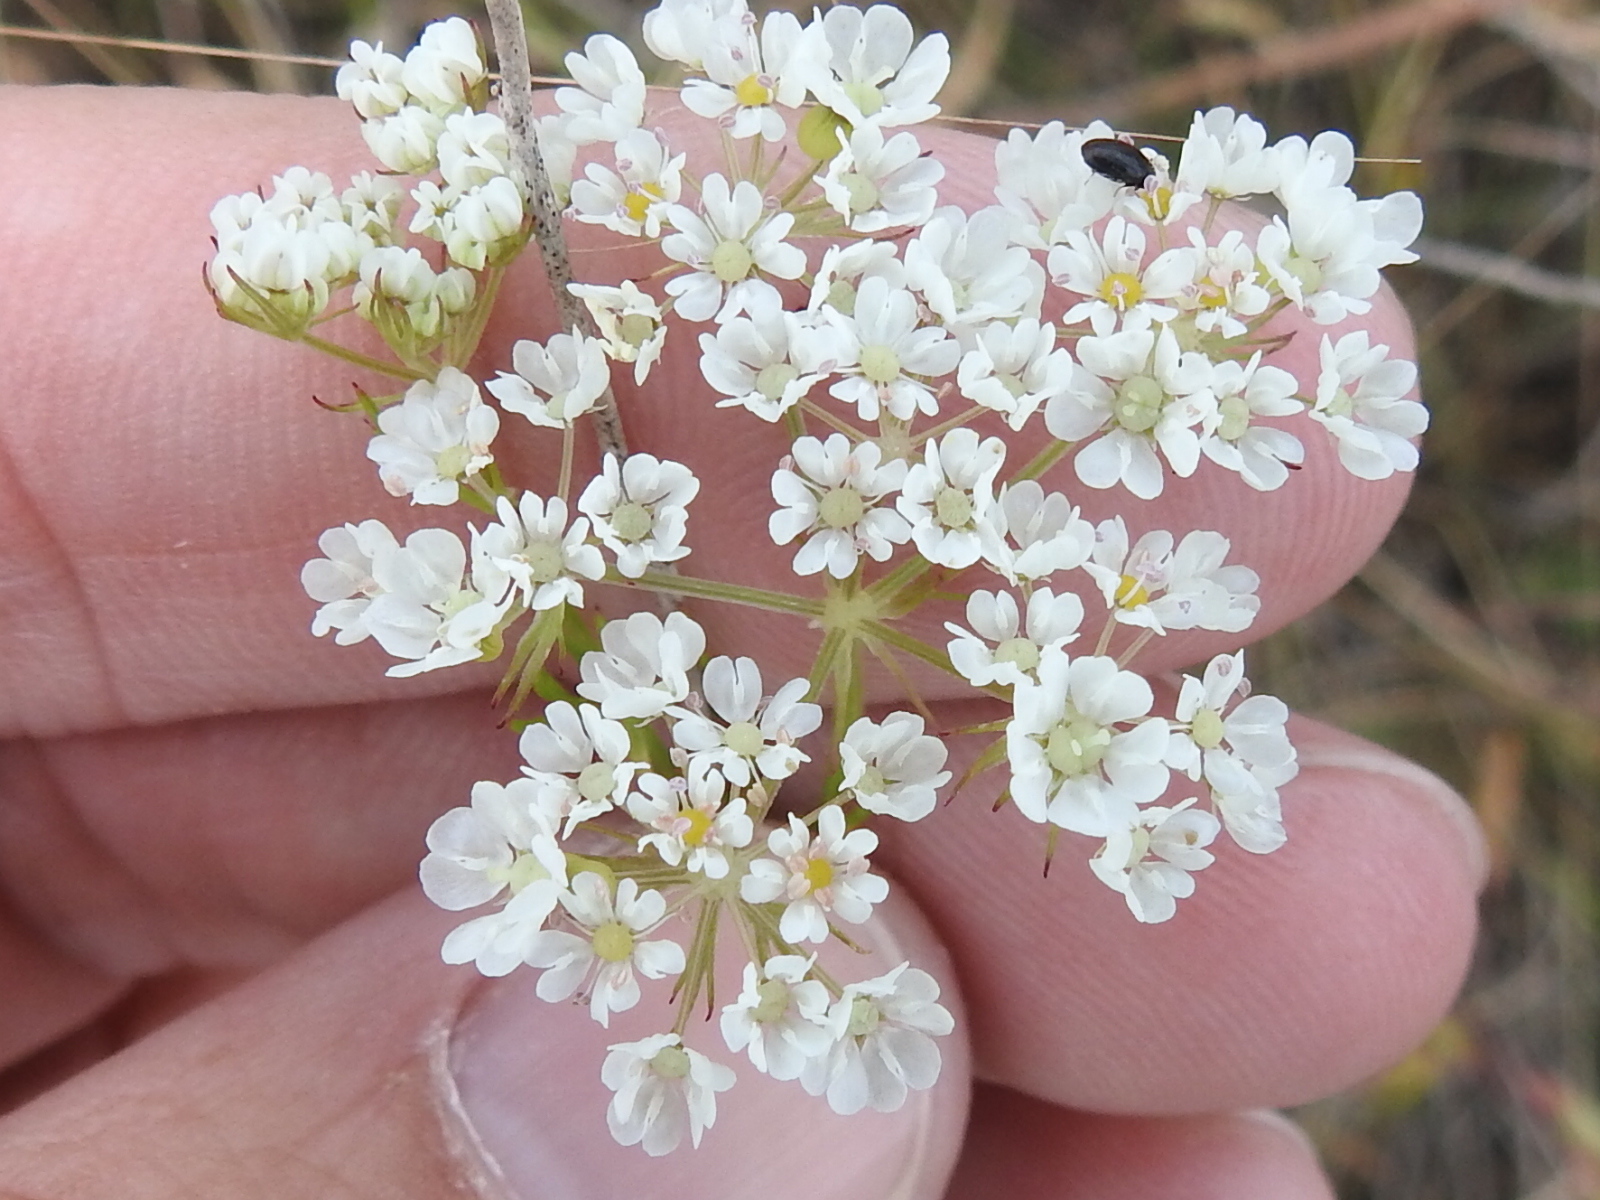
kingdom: Plantae
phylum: Tracheophyta
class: Magnoliopsida
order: Apiales
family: Apiaceae
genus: Atrema
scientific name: Atrema americanum
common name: Prairie-bishop
